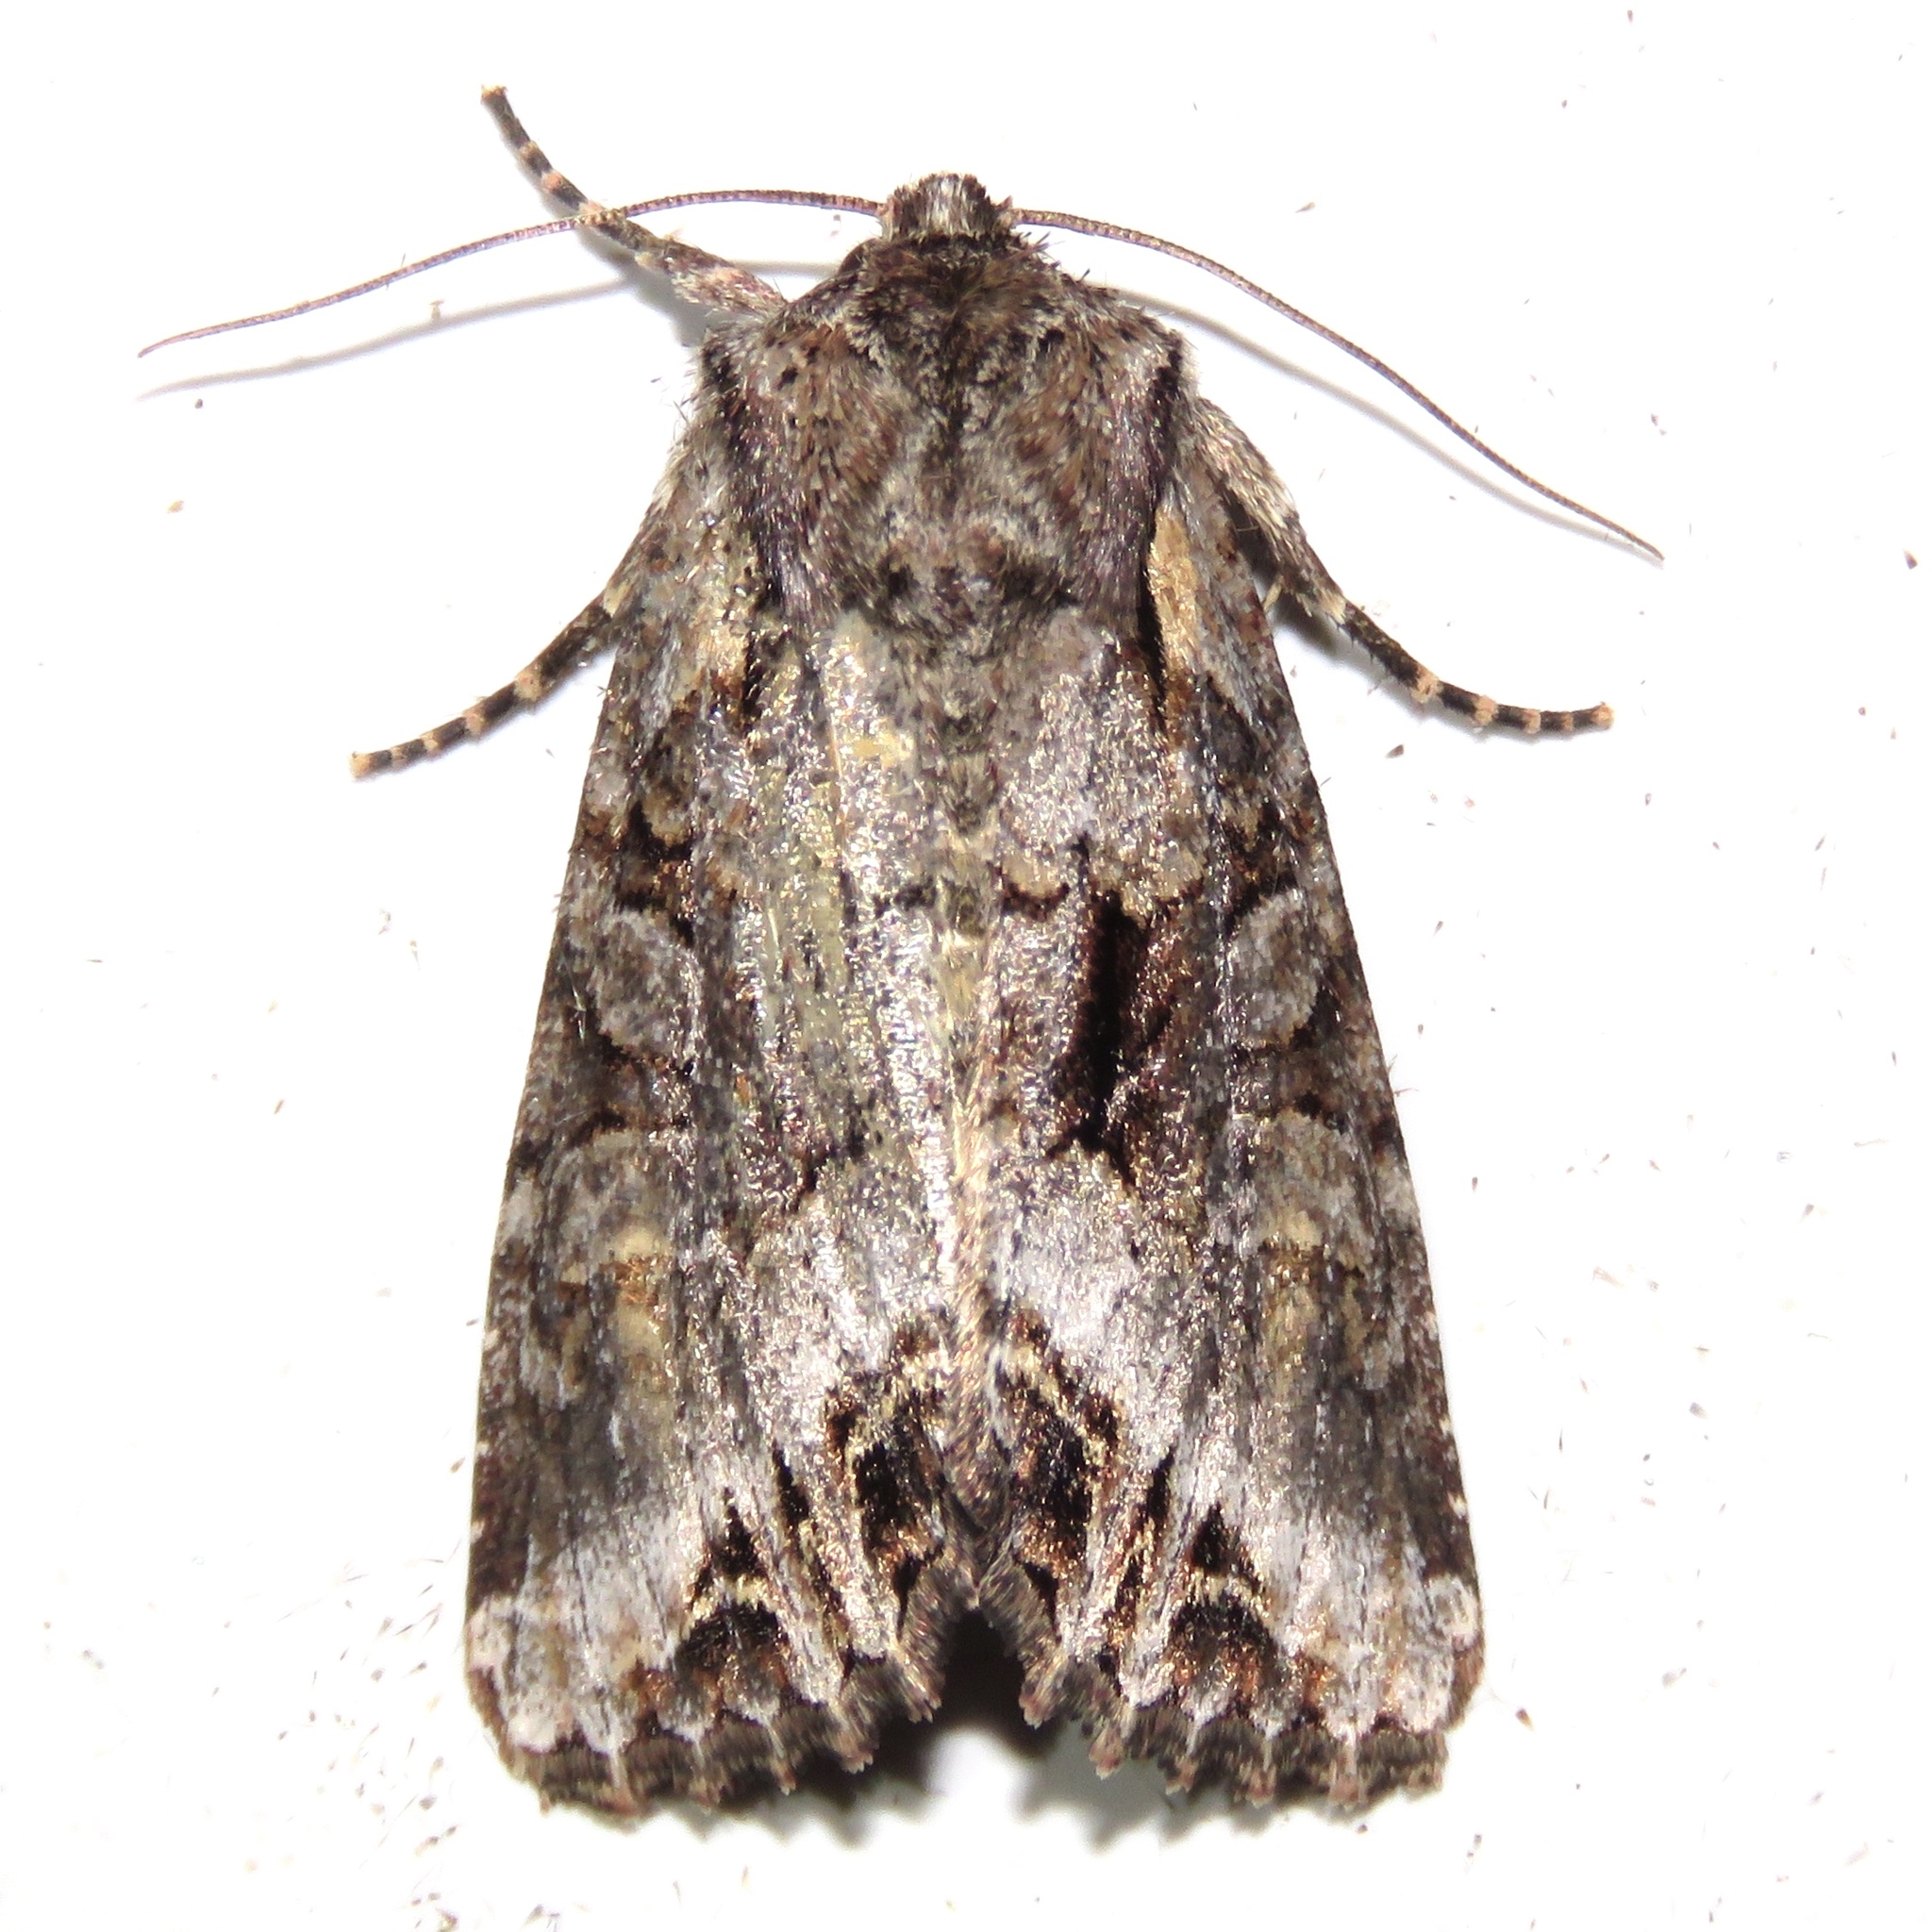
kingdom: Animalia
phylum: Arthropoda
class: Insecta
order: Lepidoptera
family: Noctuidae
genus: Lacanobia
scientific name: Lacanobia grandis
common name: Grand arches moth
